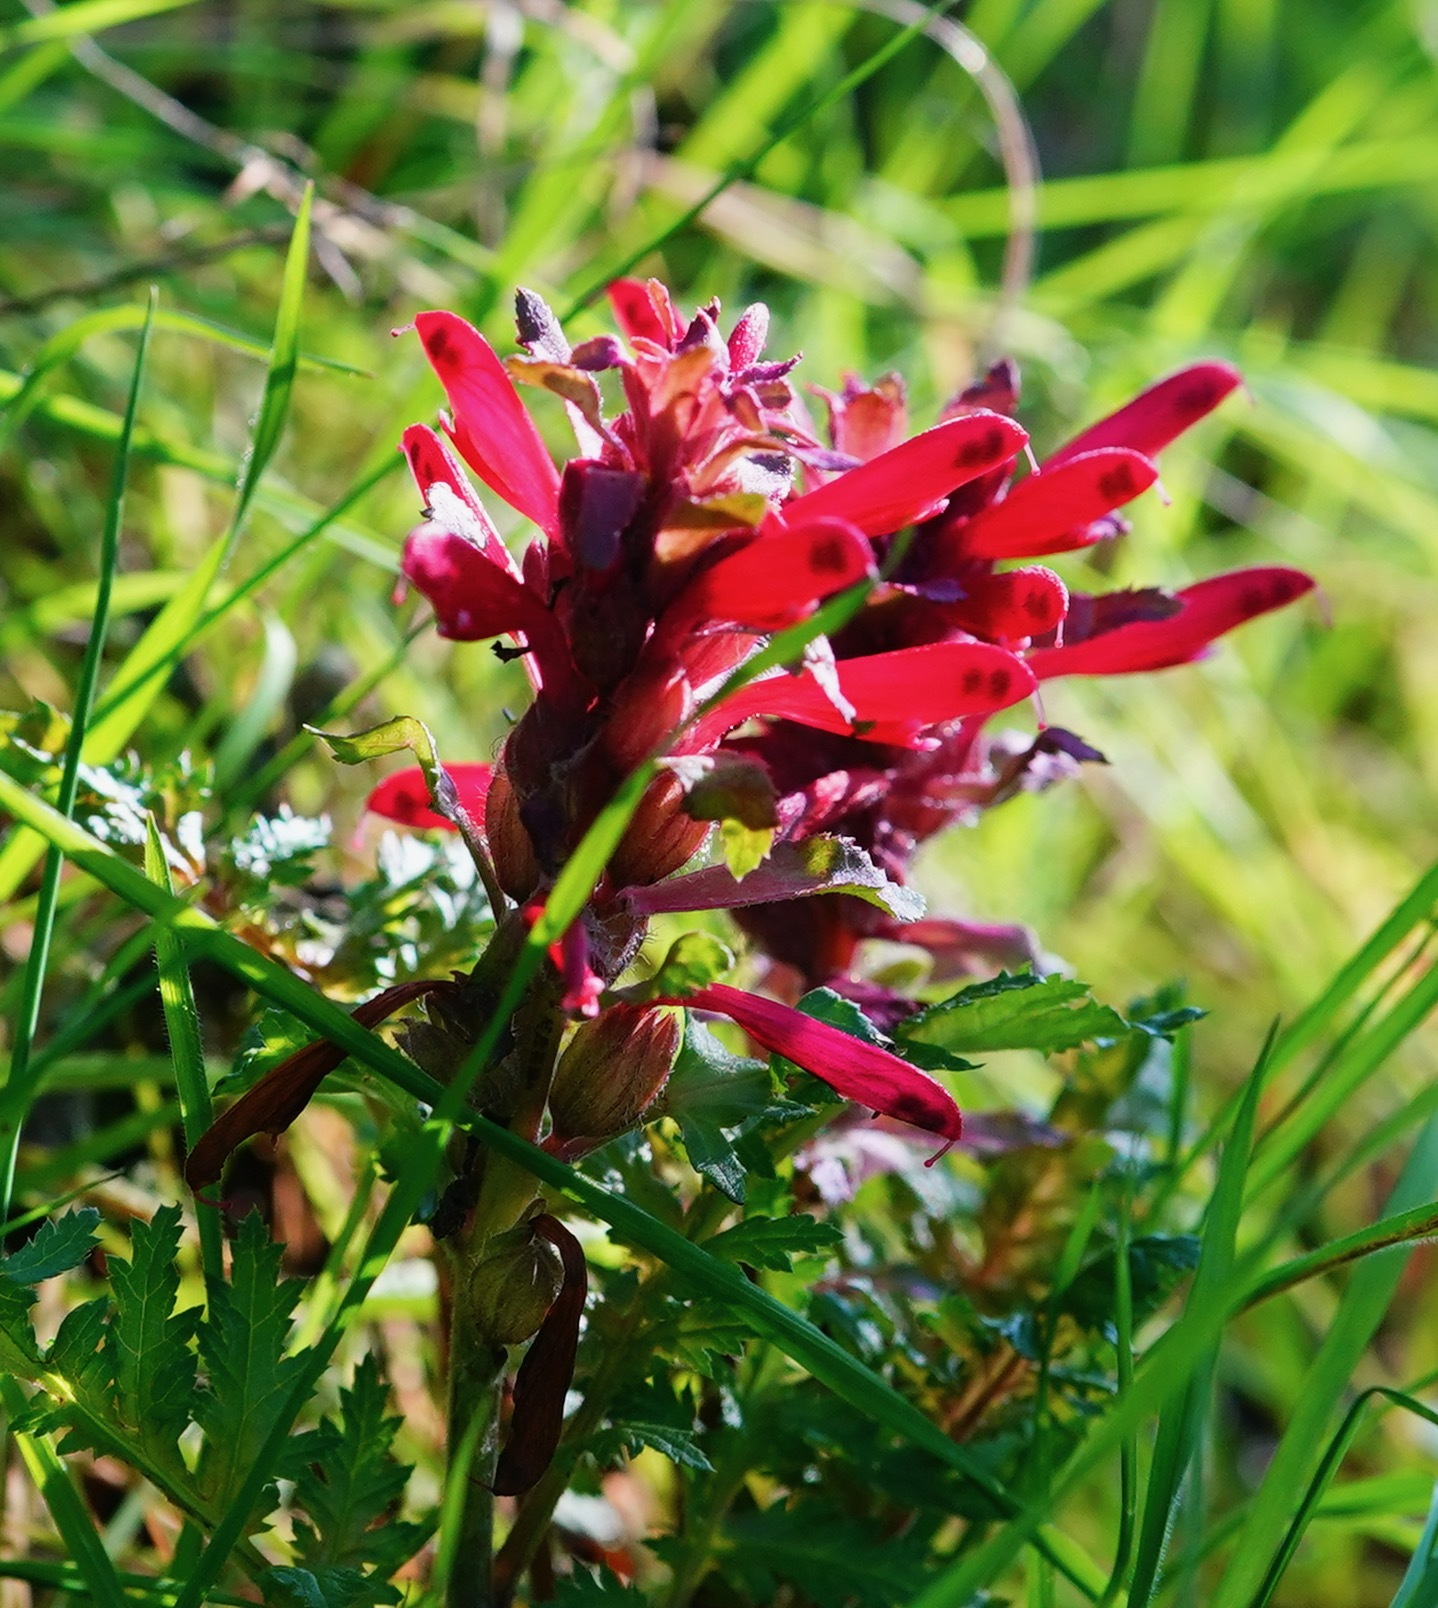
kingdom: Plantae
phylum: Tracheophyta
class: Magnoliopsida
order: Lamiales
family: Orobanchaceae
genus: Pedicularis
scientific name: Pedicularis densiflora
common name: Indian warrior
